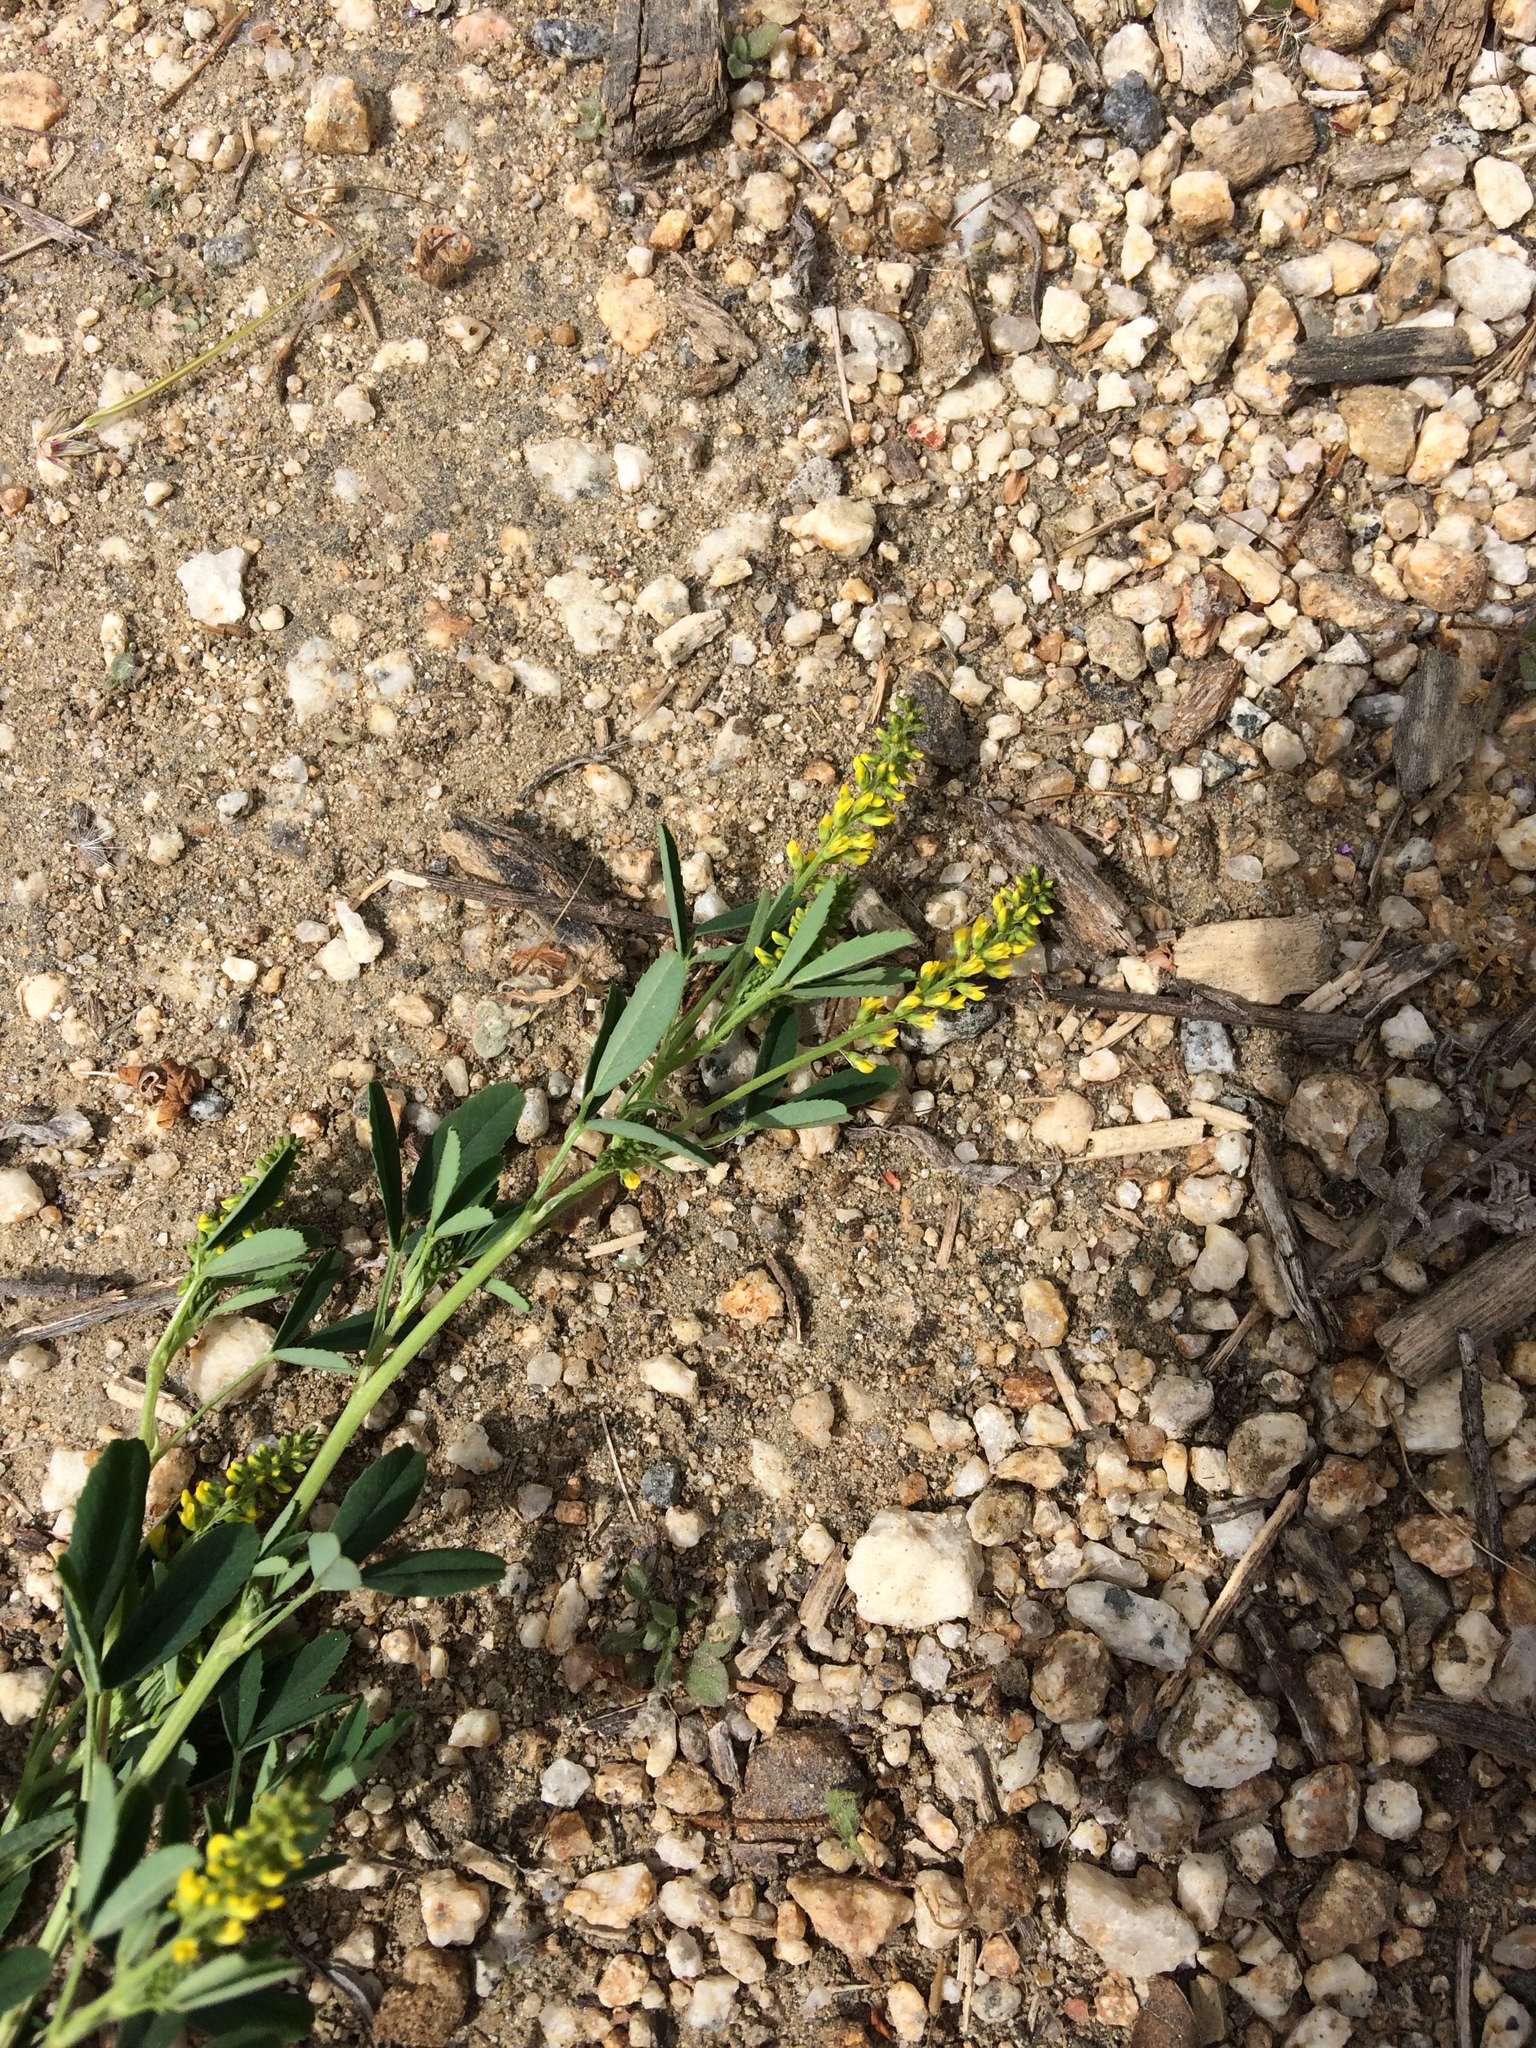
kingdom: Plantae
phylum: Tracheophyta
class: Magnoliopsida
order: Fabales
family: Fabaceae
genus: Melilotus
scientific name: Melilotus indicus
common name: Small melilot
